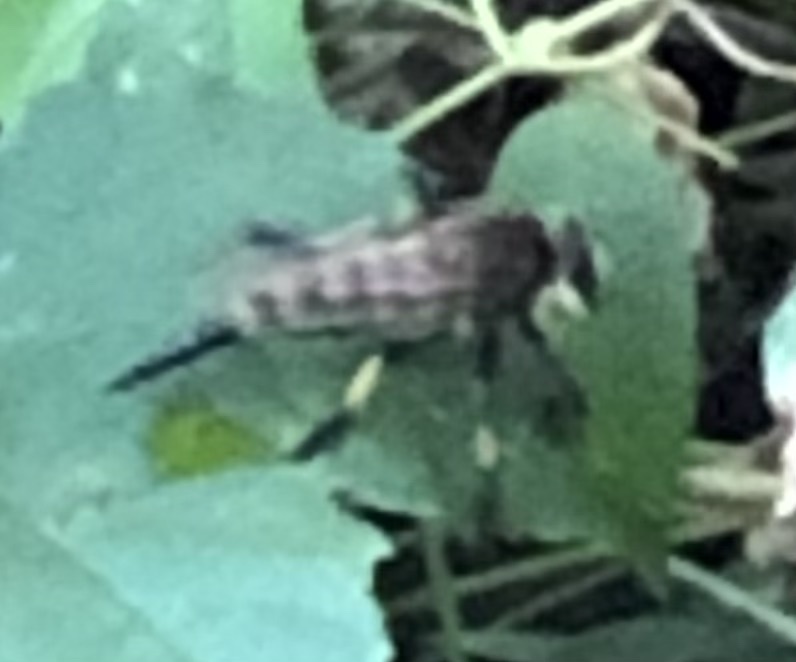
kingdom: Animalia
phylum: Arthropoda
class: Insecta
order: Diptera
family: Asilidae
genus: Promachus
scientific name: Promachus rufipes
